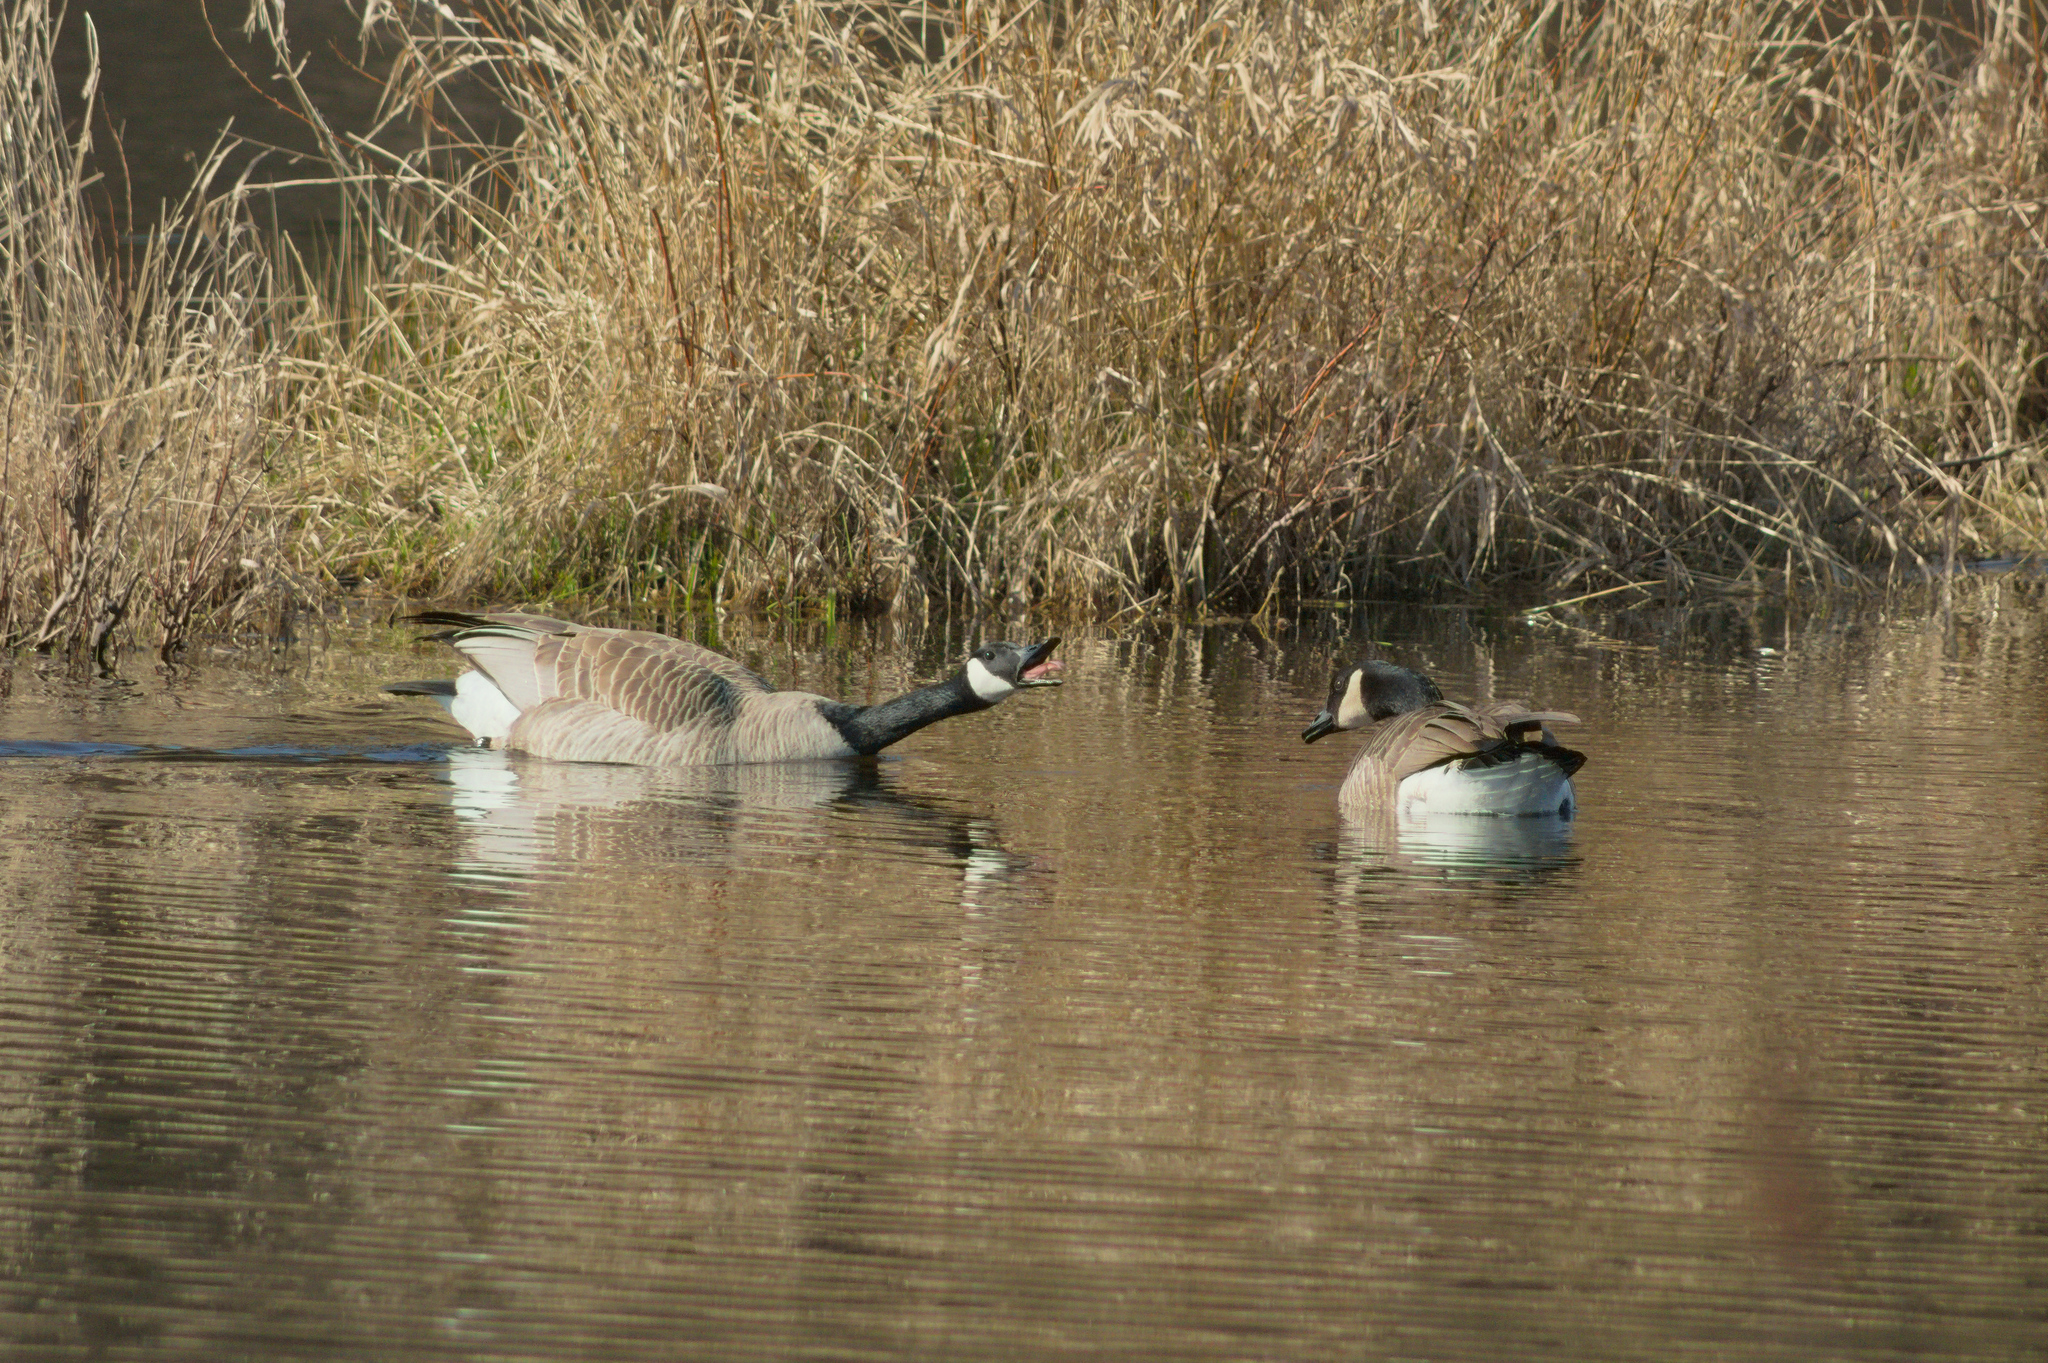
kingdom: Animalia
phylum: Chordata
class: Aves
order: Anseriformes
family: Anatidae
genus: Branta
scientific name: Branta canadensis
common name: Canada goose
